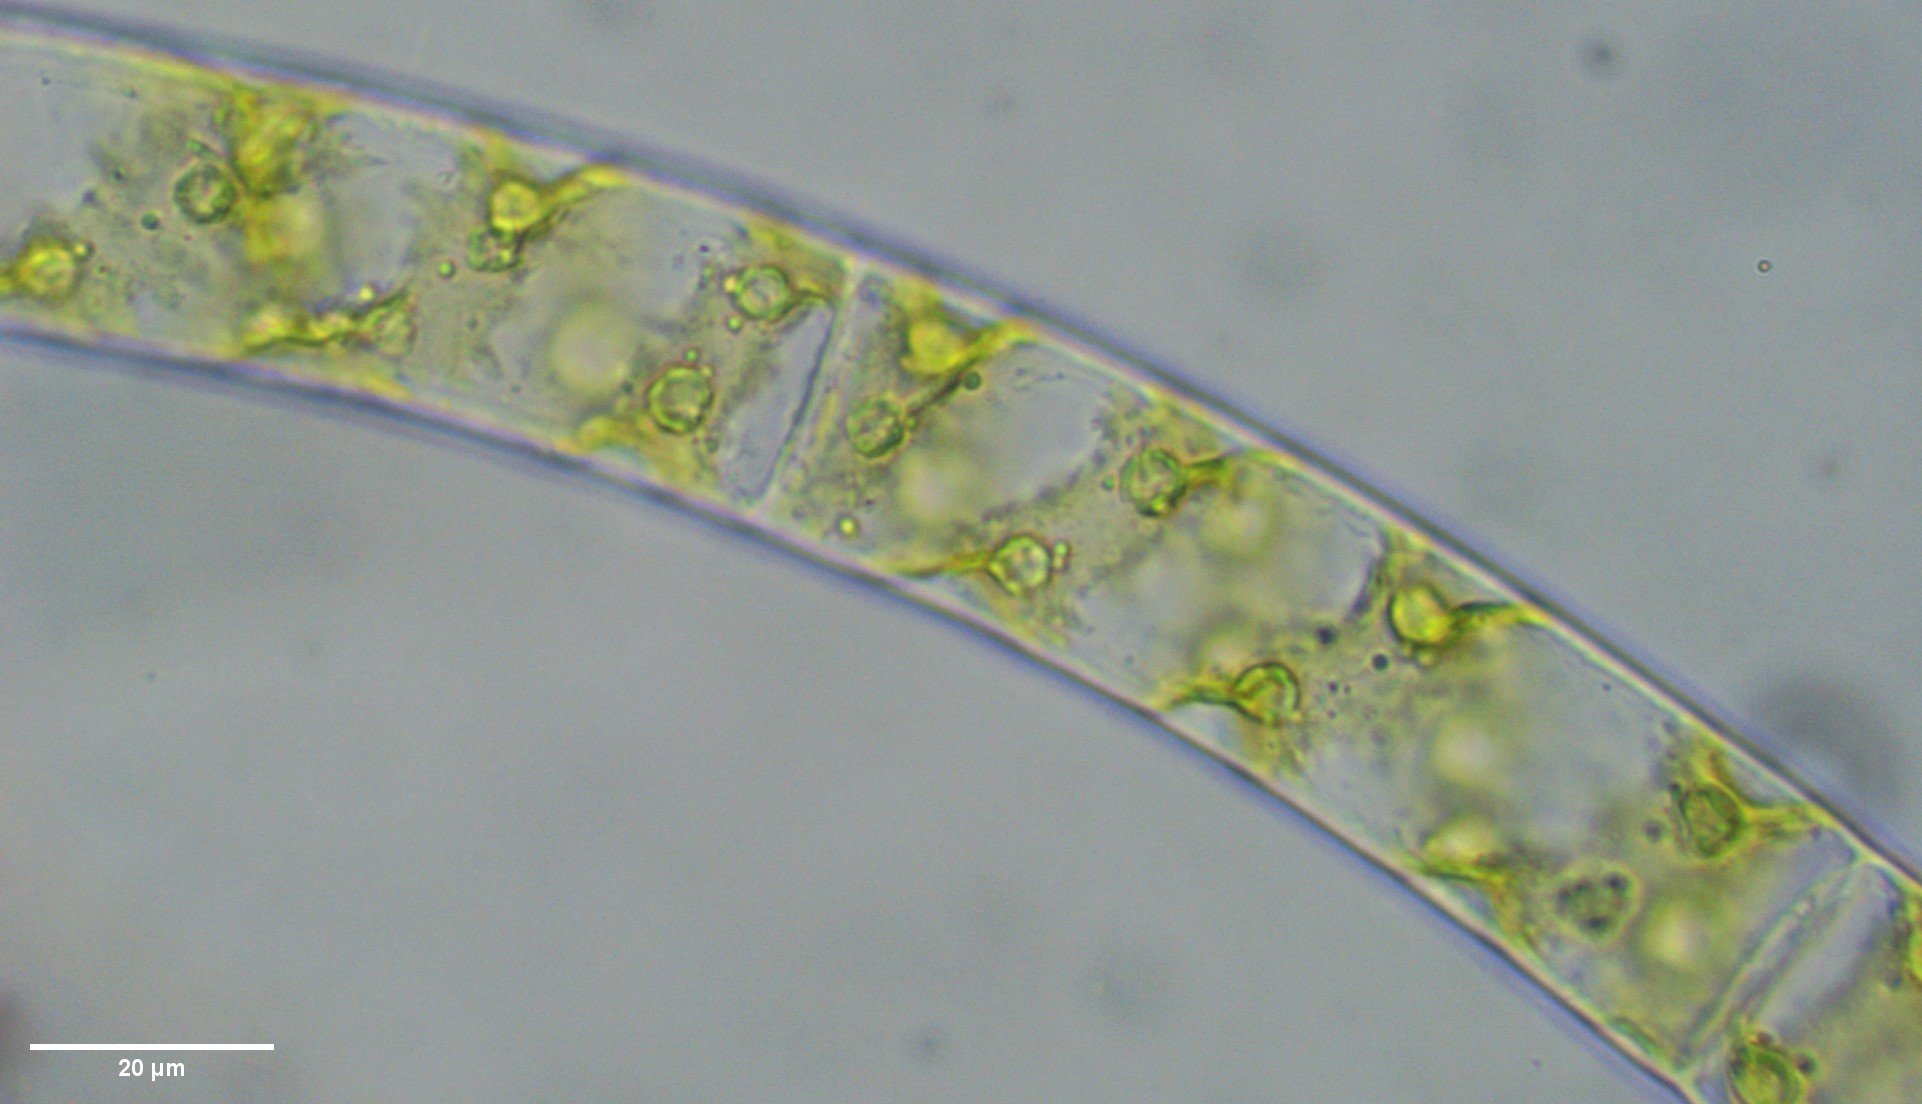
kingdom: Plantae
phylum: Charophyta
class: Zygnematophyceae
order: Zygnematales
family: Zygnemataceae
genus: Spirogyra
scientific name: Spirogyra
